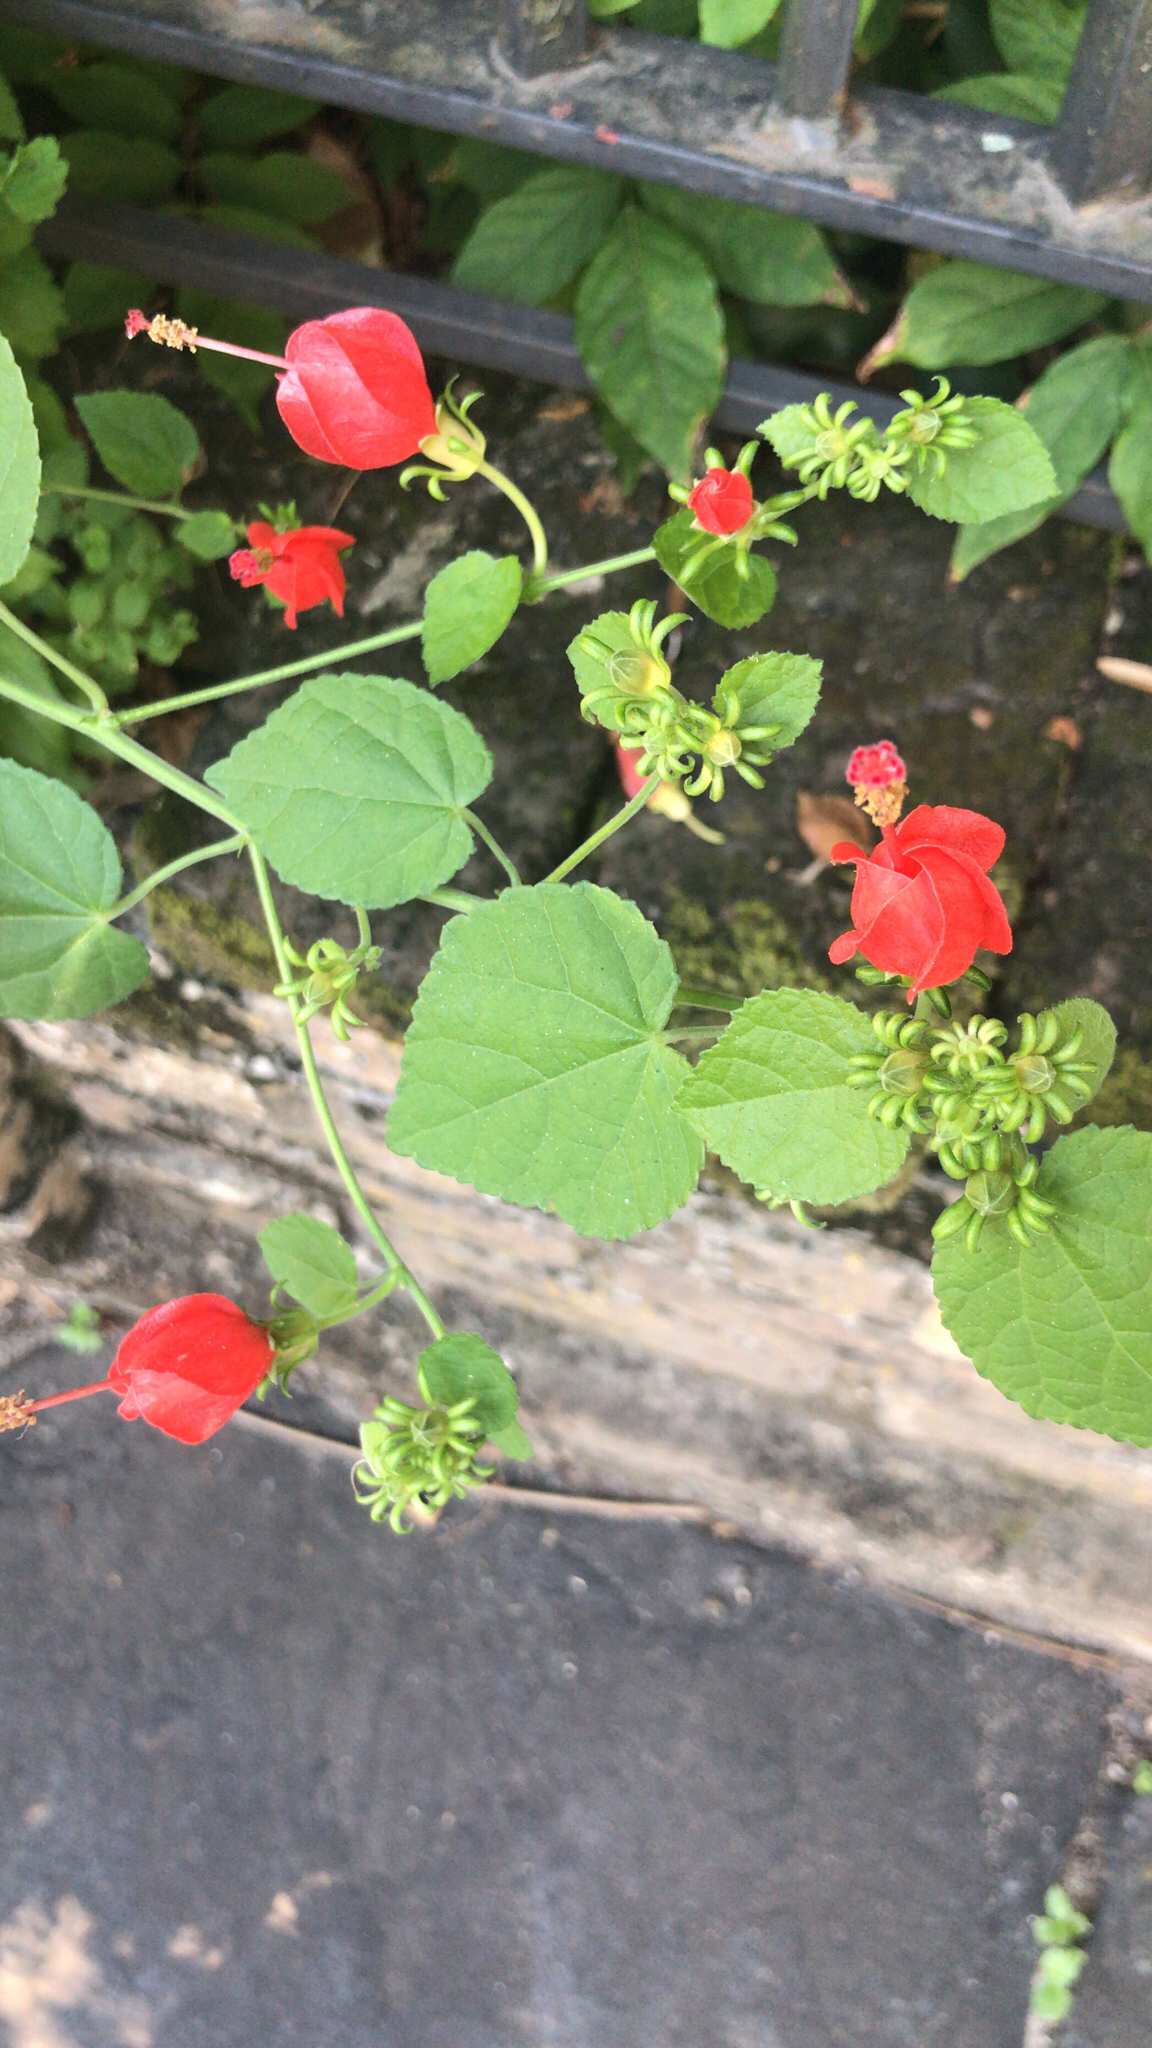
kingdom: Plantae
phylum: Tracheophyta
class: Magnoliopsida
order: Malvales
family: Malvaceae
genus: Malvaviscus
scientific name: Malvaviscus arboreus
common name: Wax mallow
